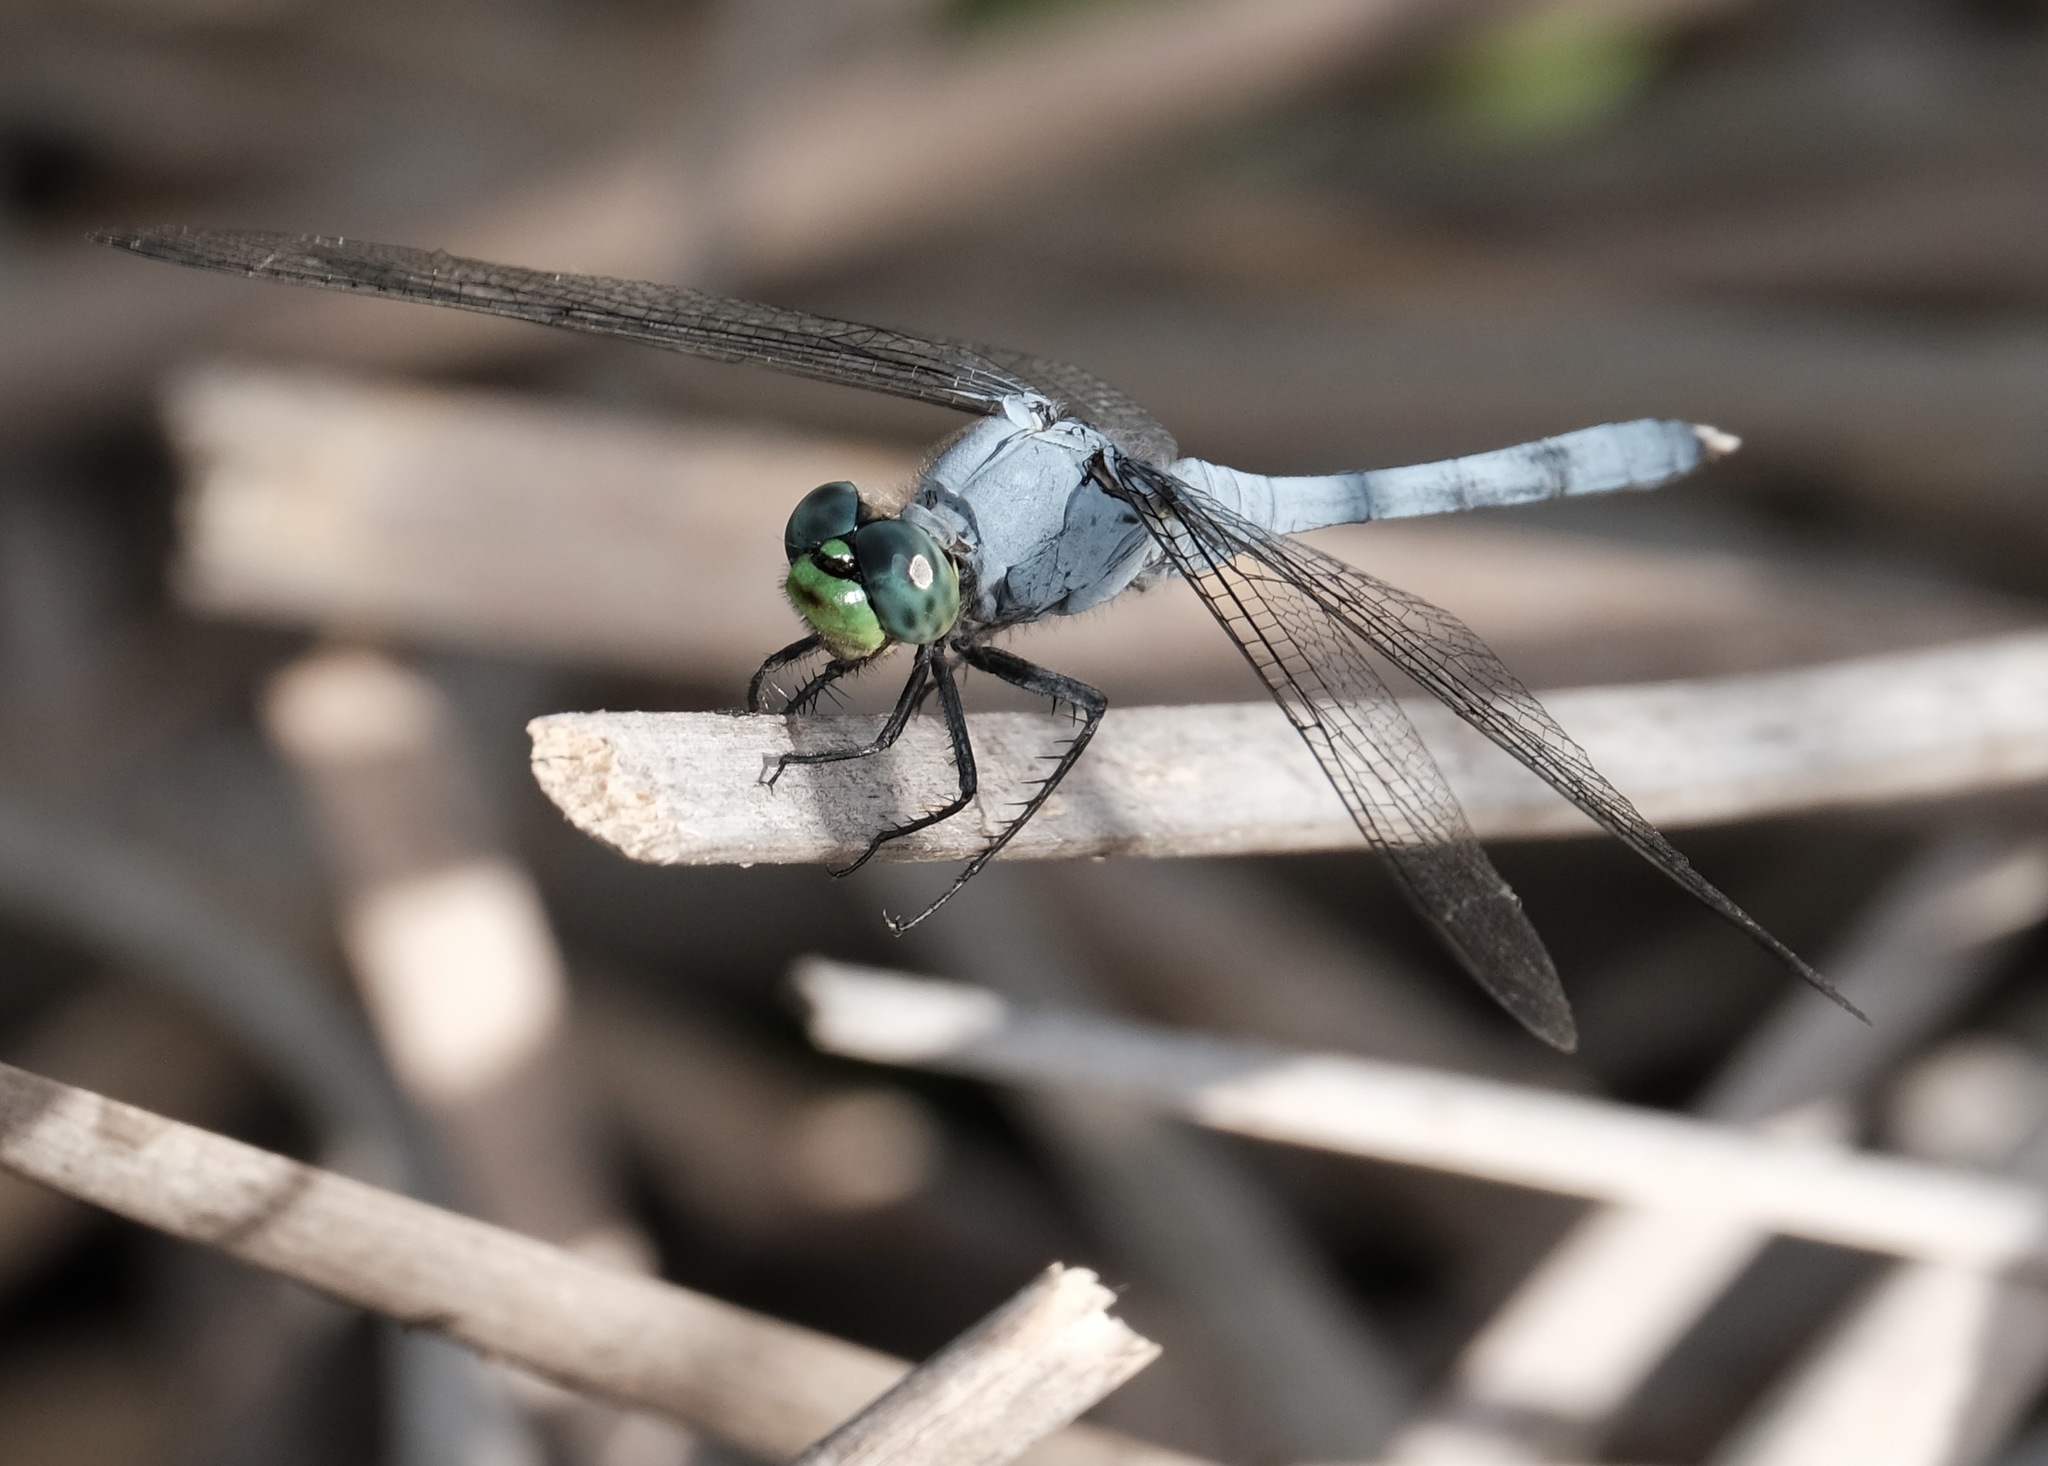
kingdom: Animalia
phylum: Arthropoda
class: Insecta
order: Odonata
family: Libellulidae
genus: Erythemis
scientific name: Erythemis simplicicollis
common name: Eastern pondhawk
